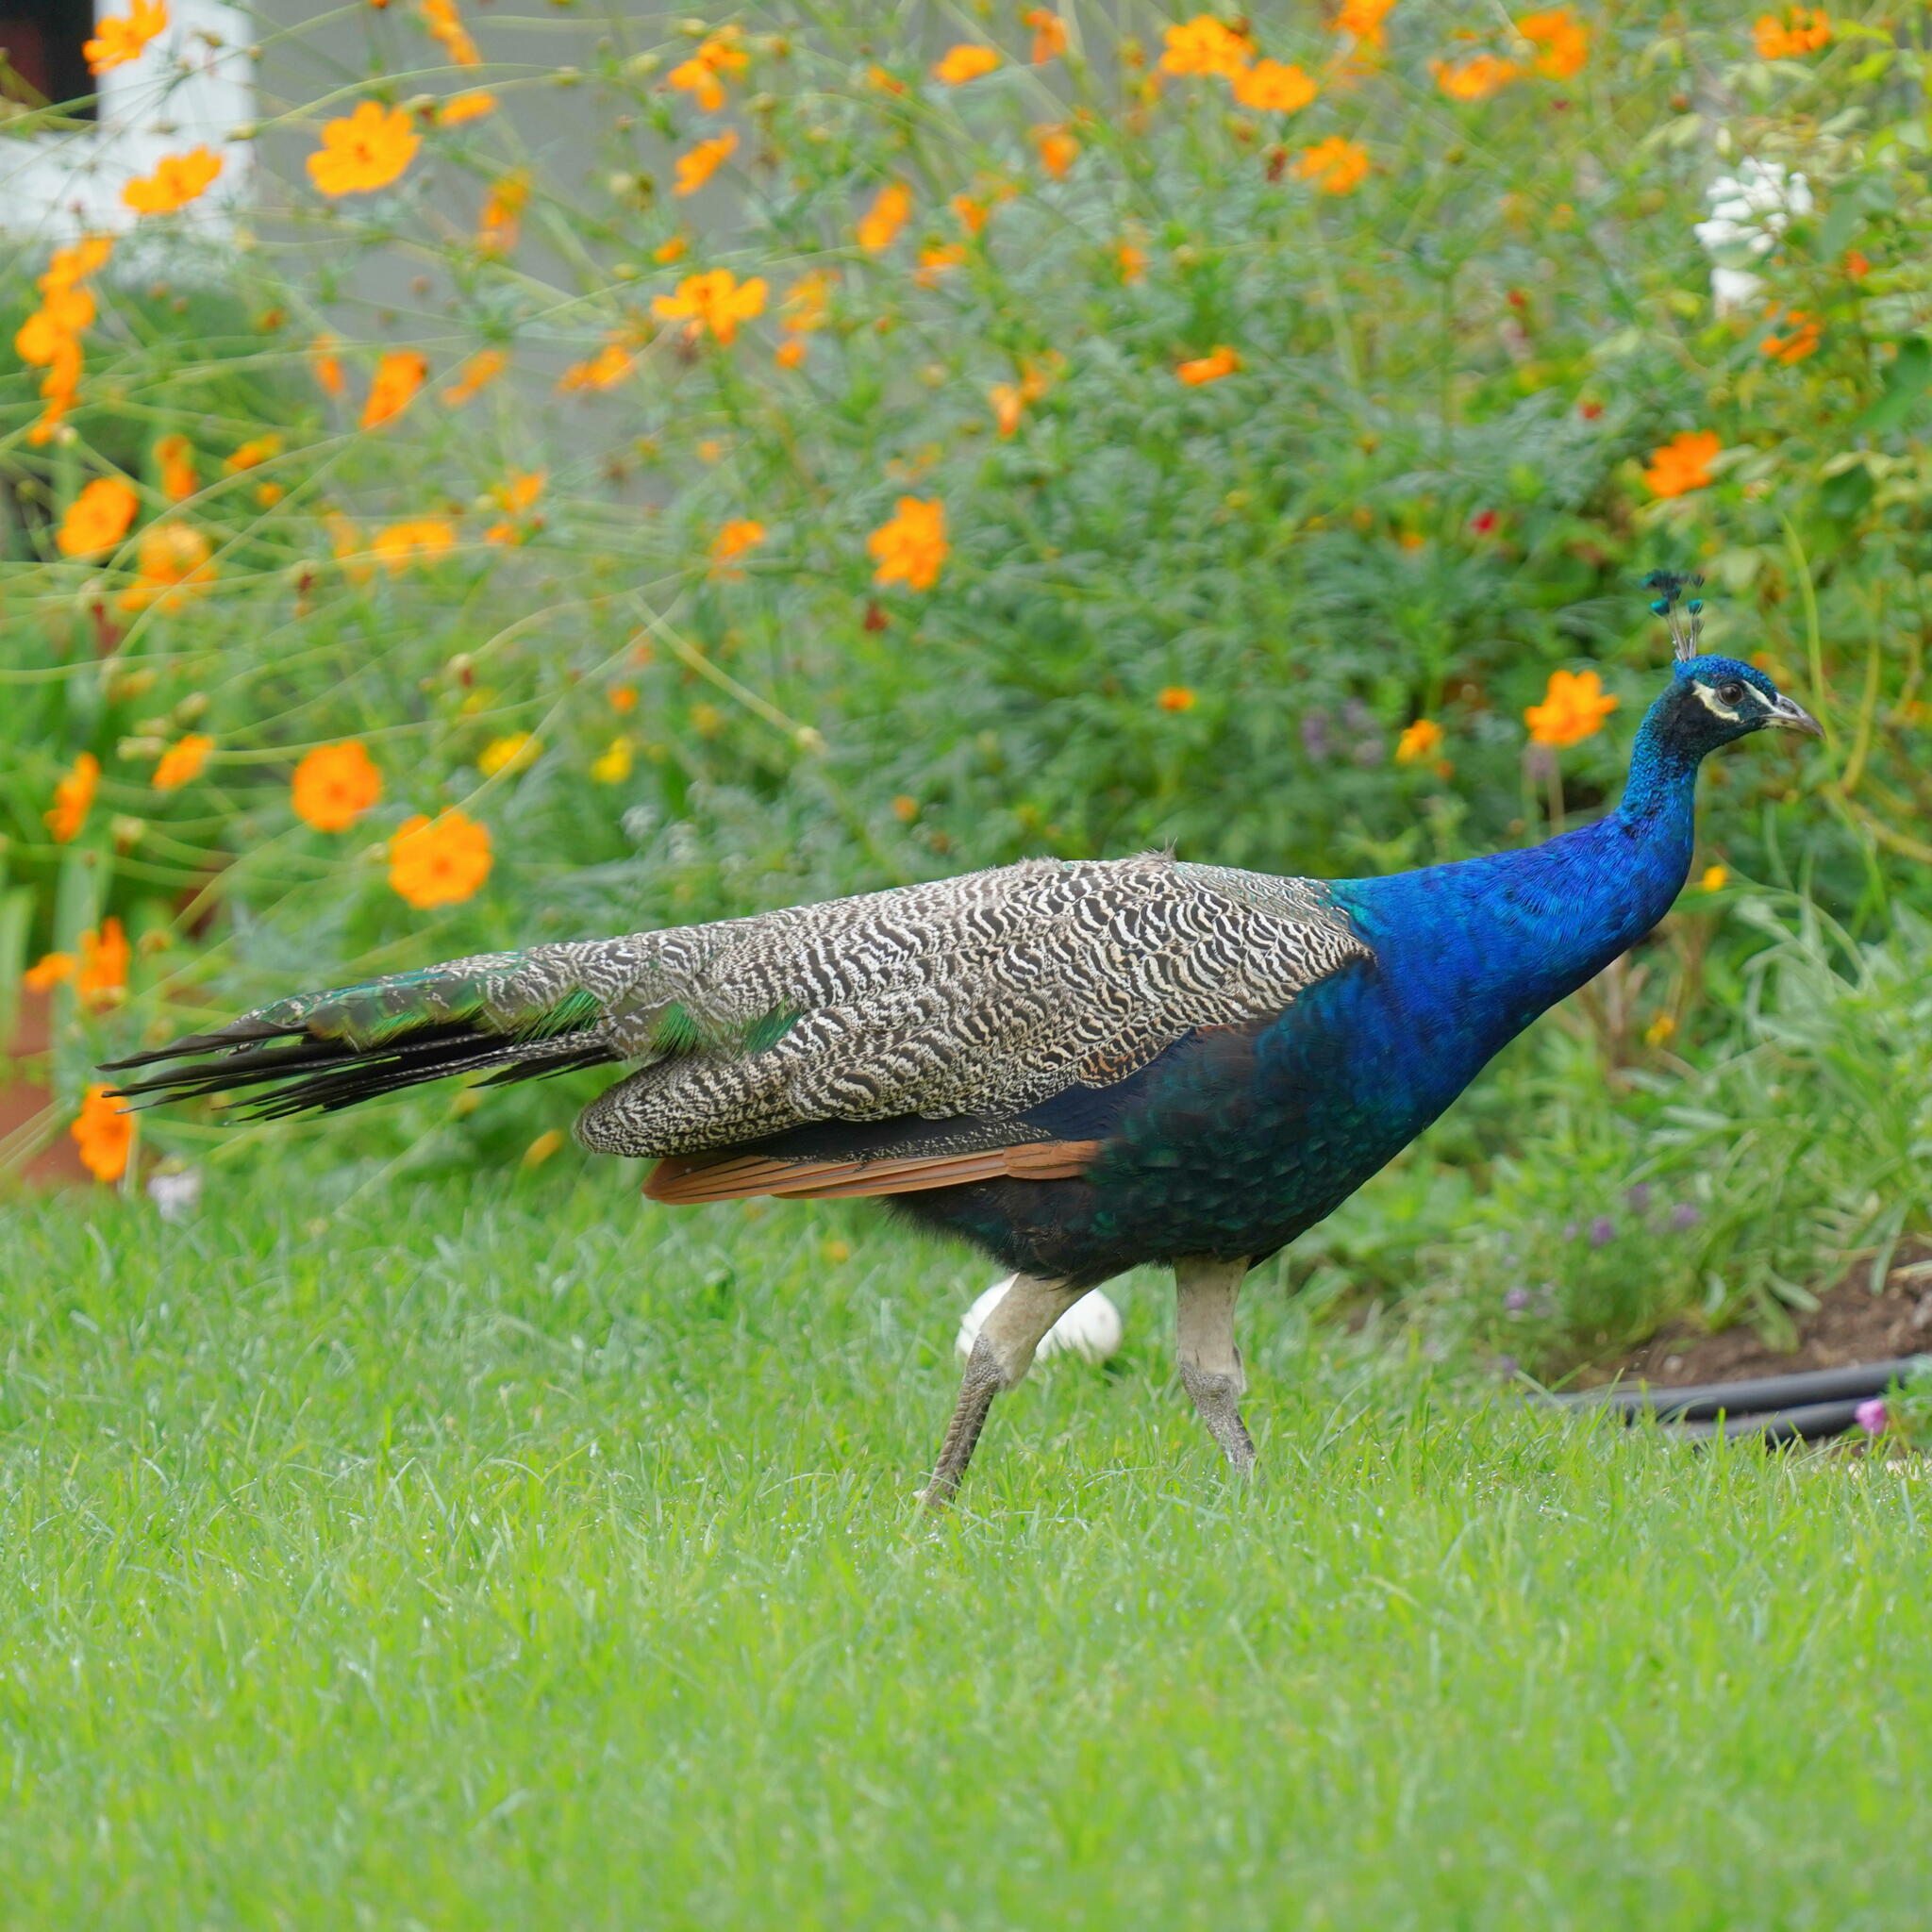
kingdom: Animalia
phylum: Chordata
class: Aves
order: Galliformes
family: Phasianidae
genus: Pavo
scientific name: Pavo cristatus
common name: Indian peafowl
